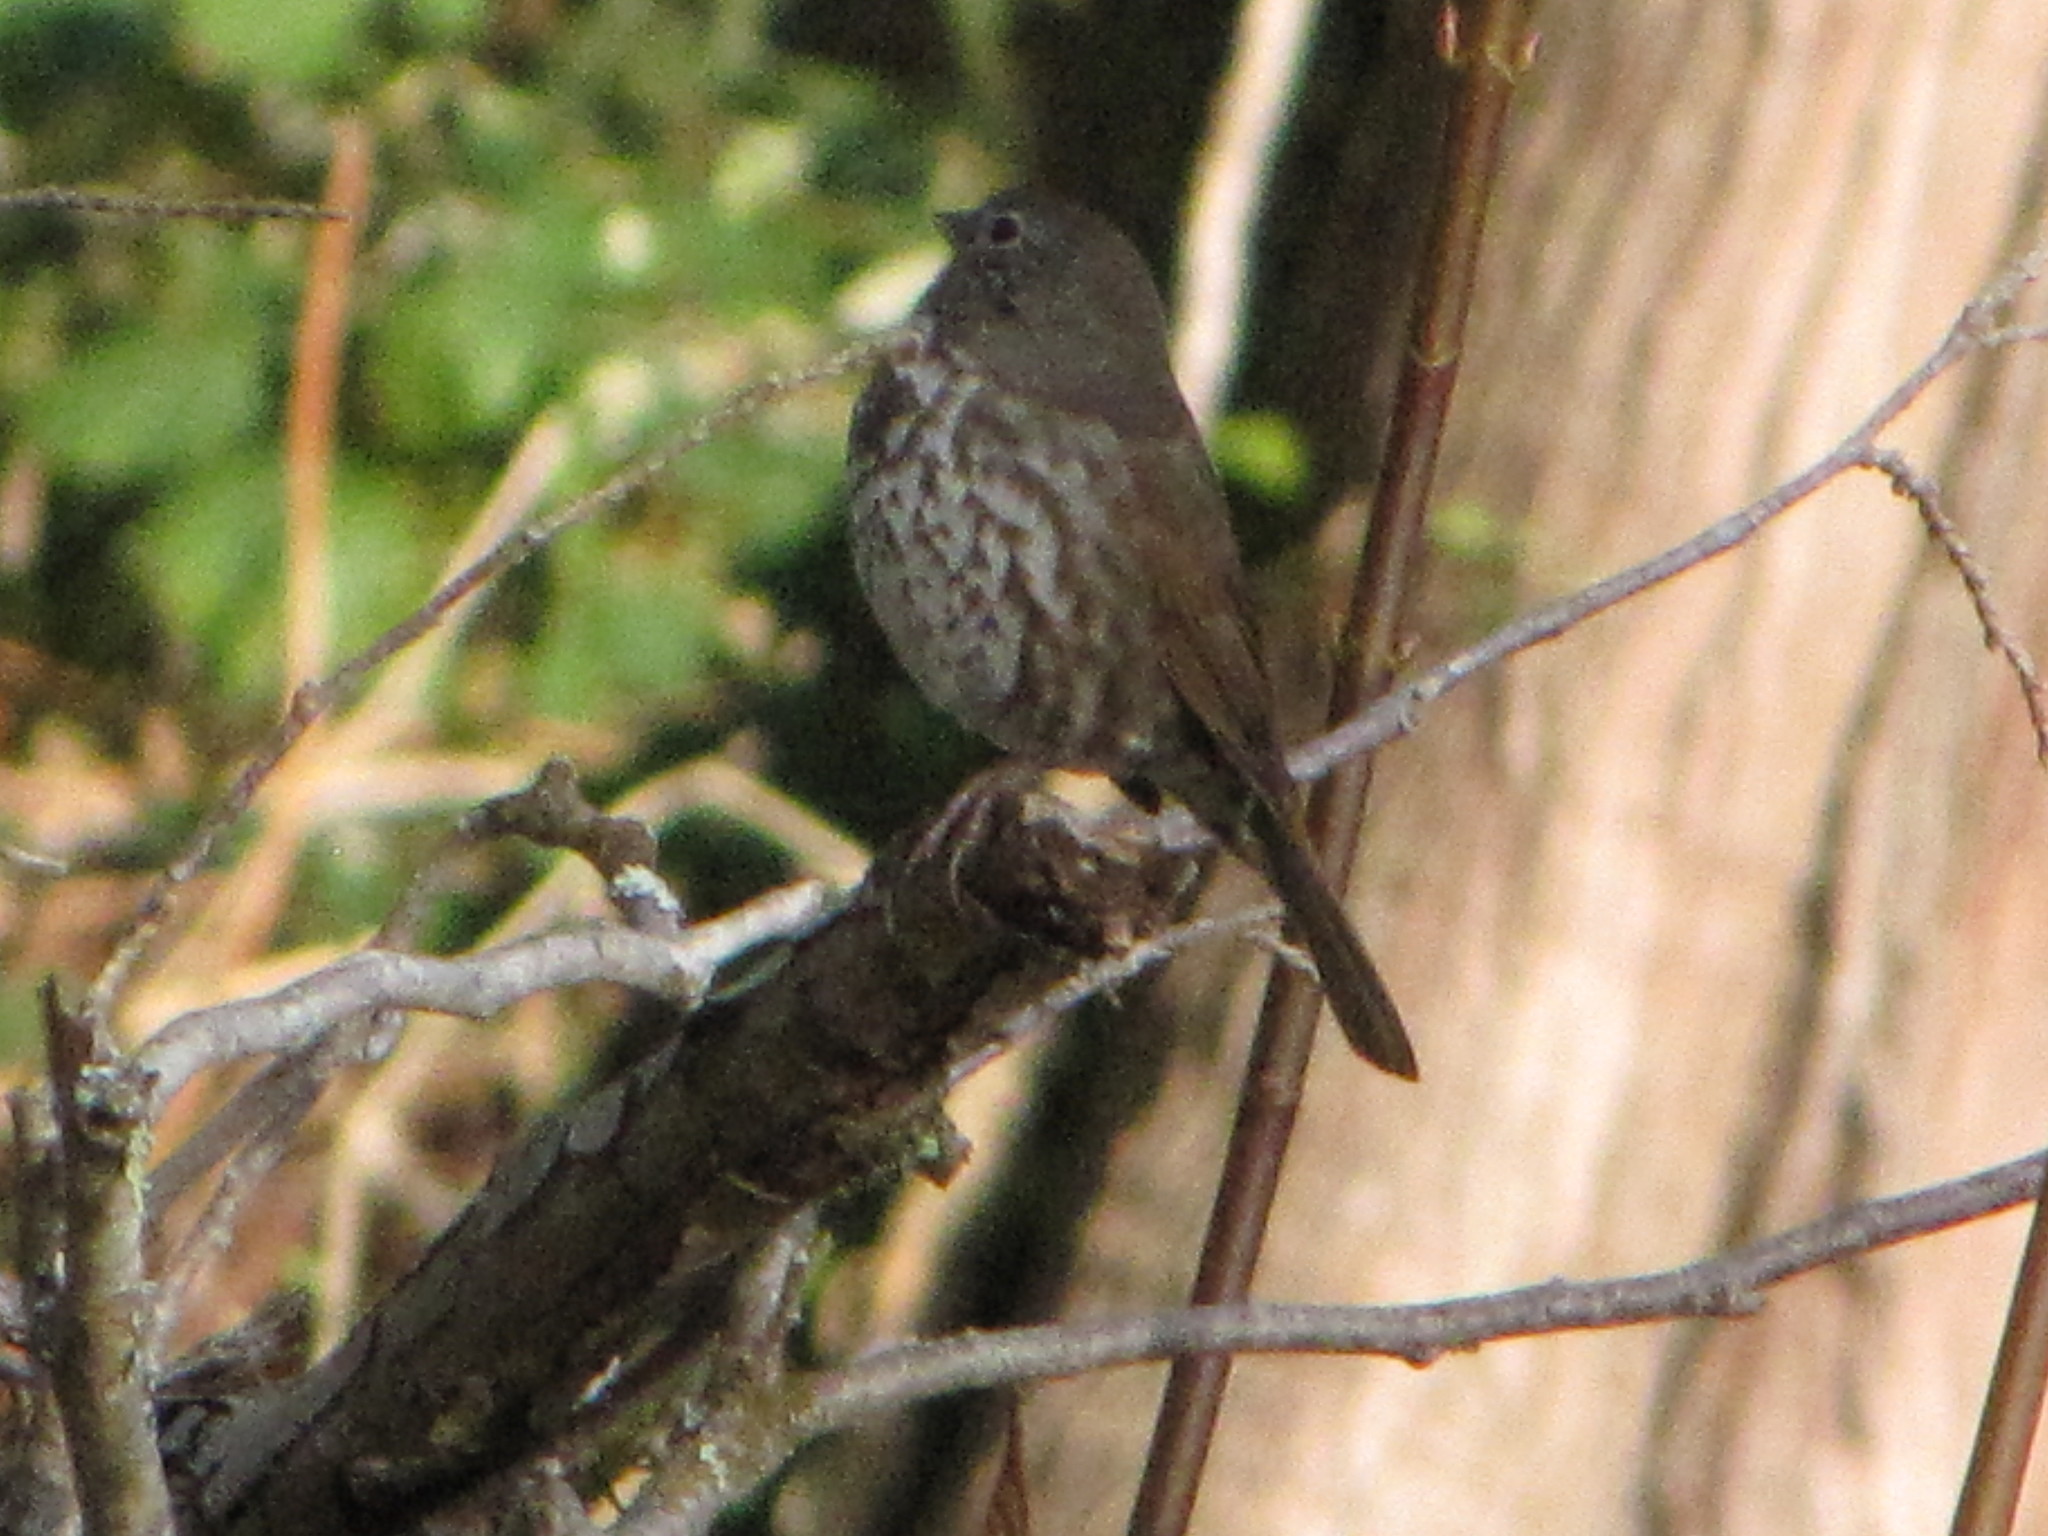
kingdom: Animalia
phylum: Chordata
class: Aves
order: Passeriformes
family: Passerellidae
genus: Passerella
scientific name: Passerella iliaca
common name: Fox sparrow
